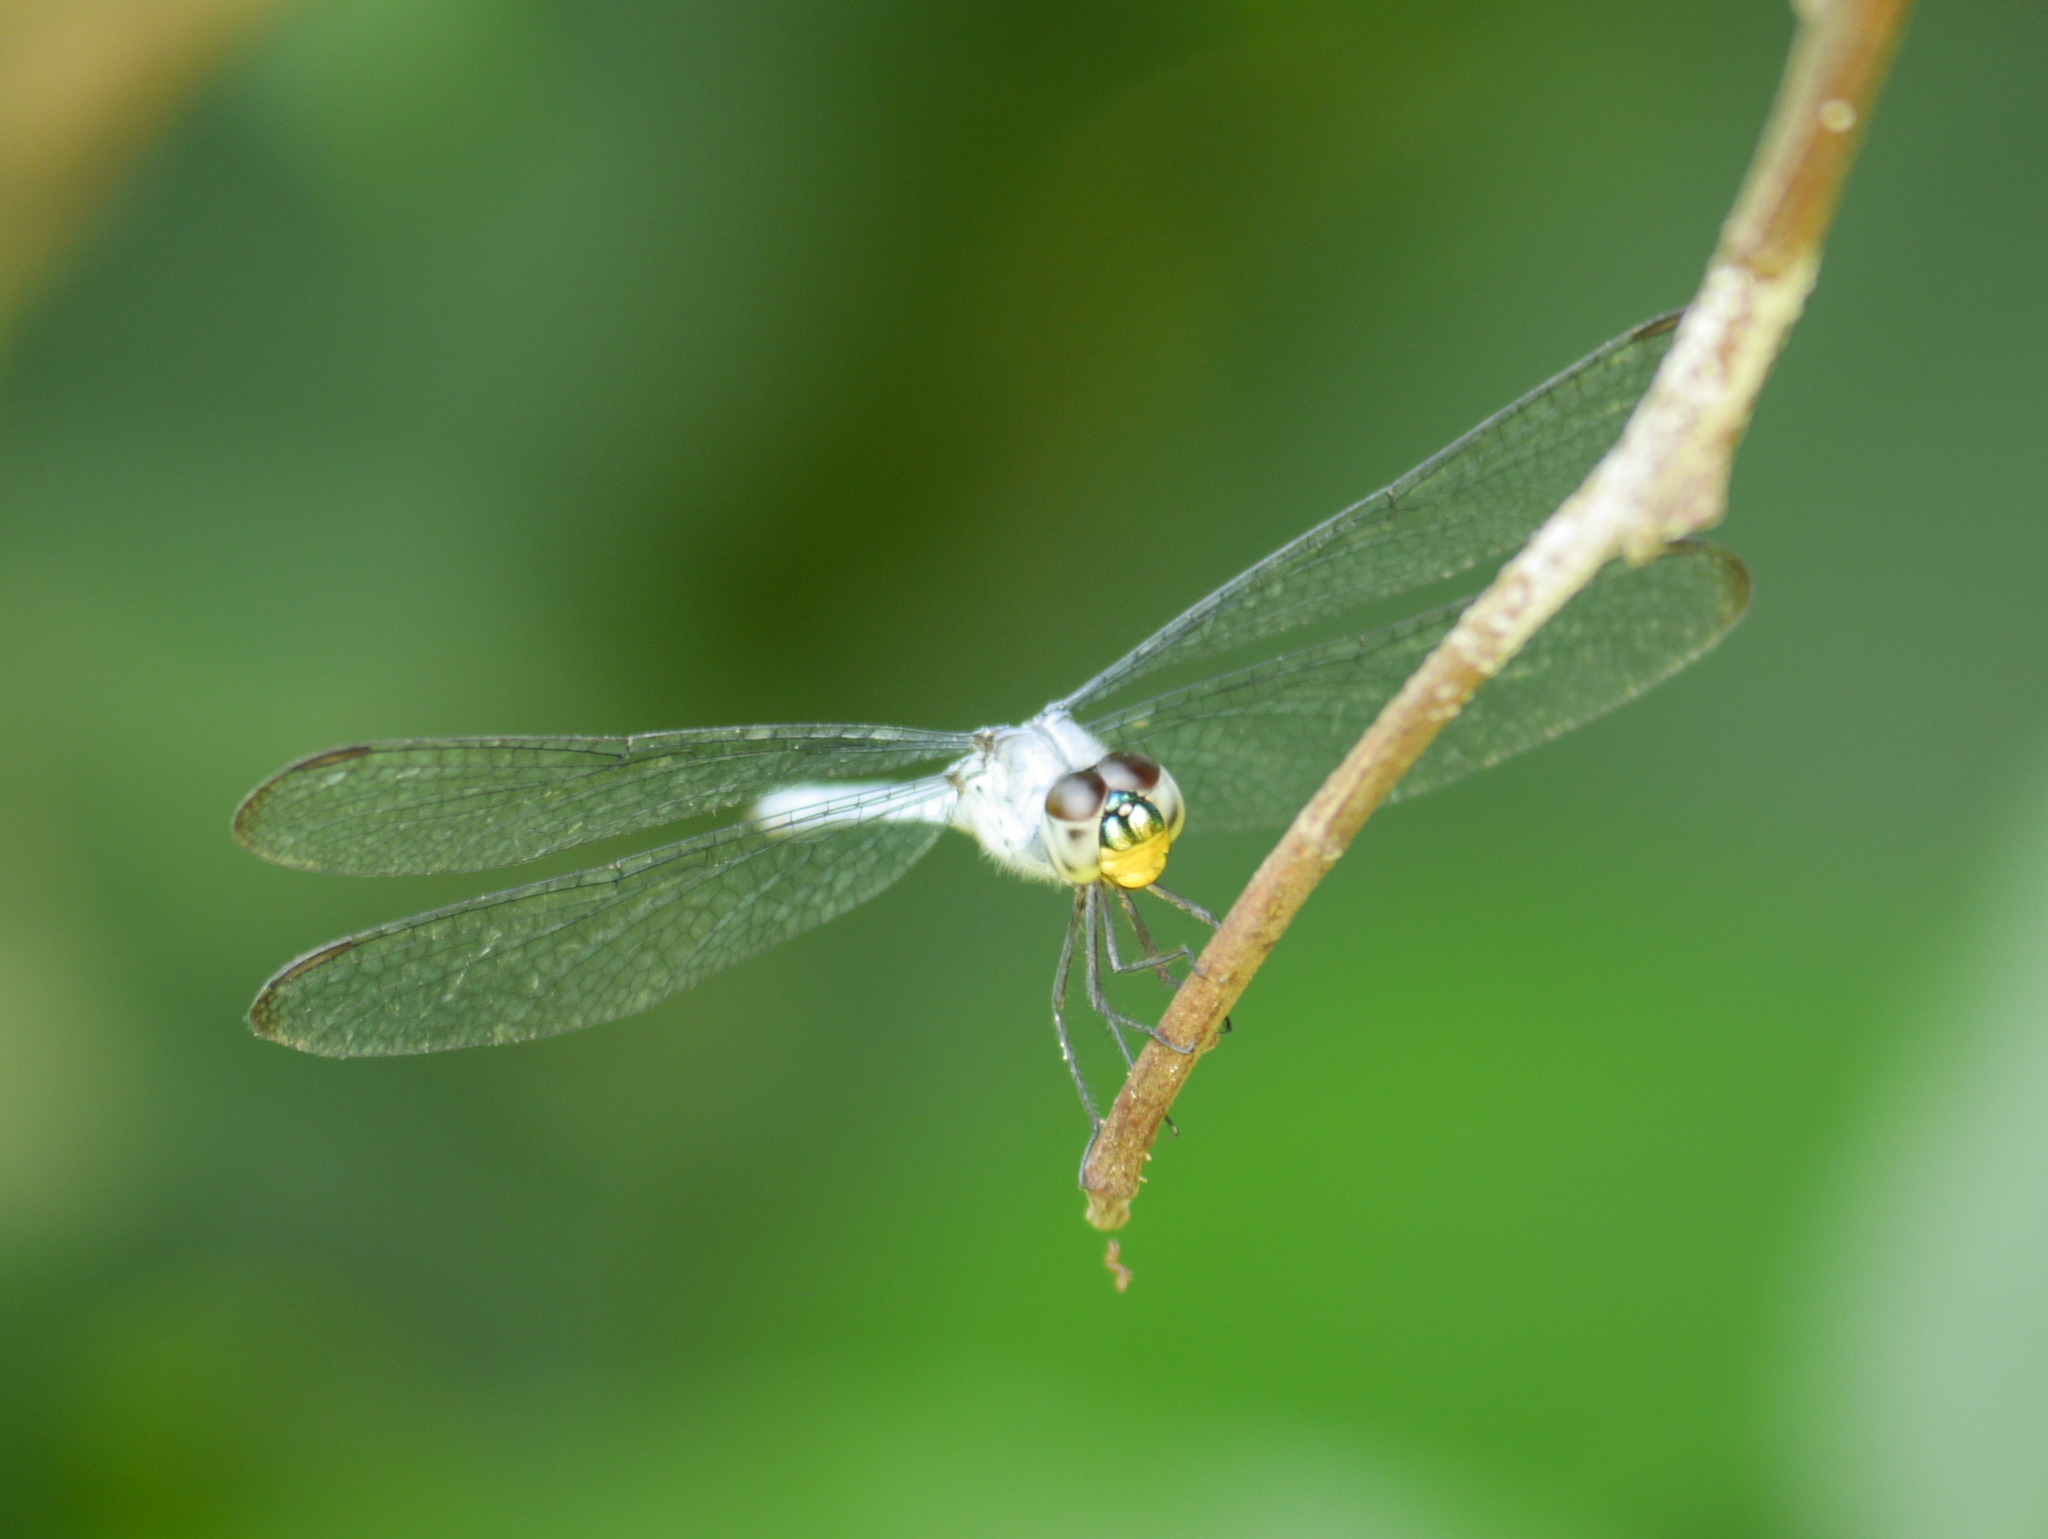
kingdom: Animalia
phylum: Arthropoda
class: Insecta
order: Odonata
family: Libellulidae
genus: Chalcostephia
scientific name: Chalcostephia flavifrons
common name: Inspector
